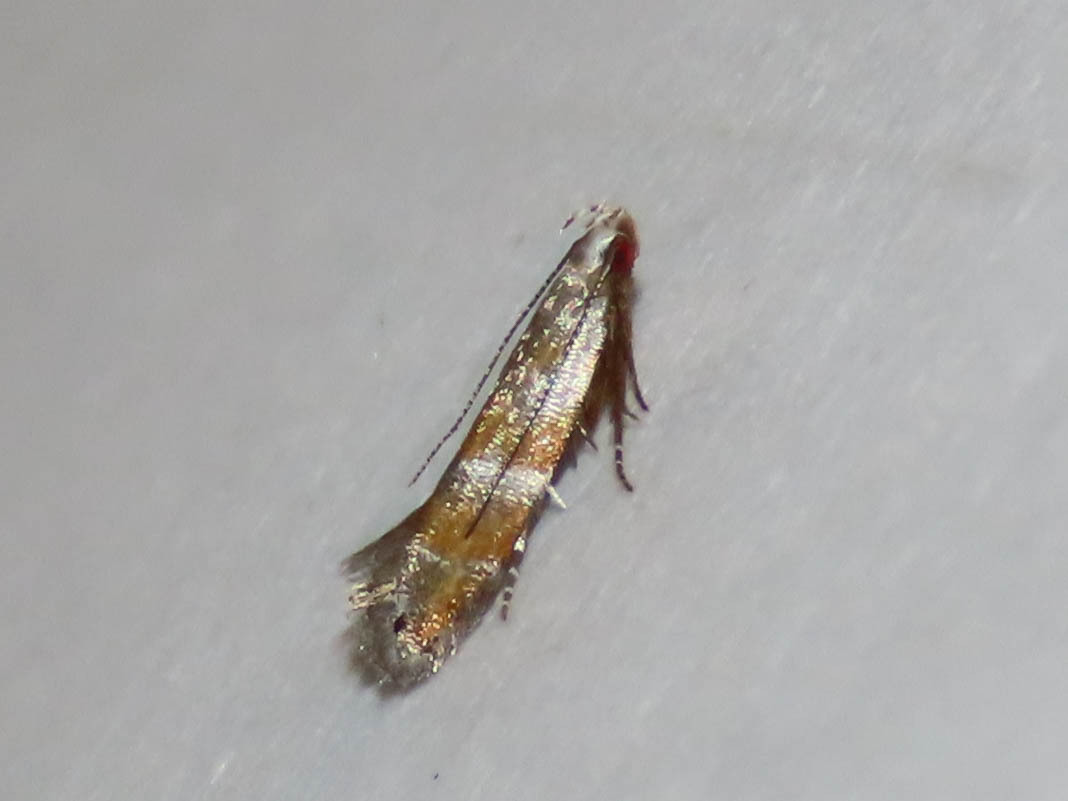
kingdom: Animalia
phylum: Arthropoda
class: Insecta
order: Lepidoptera
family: Gelechiidae
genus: Battaristis
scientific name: Battaristis vittella
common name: Orange stripe-backed moth
